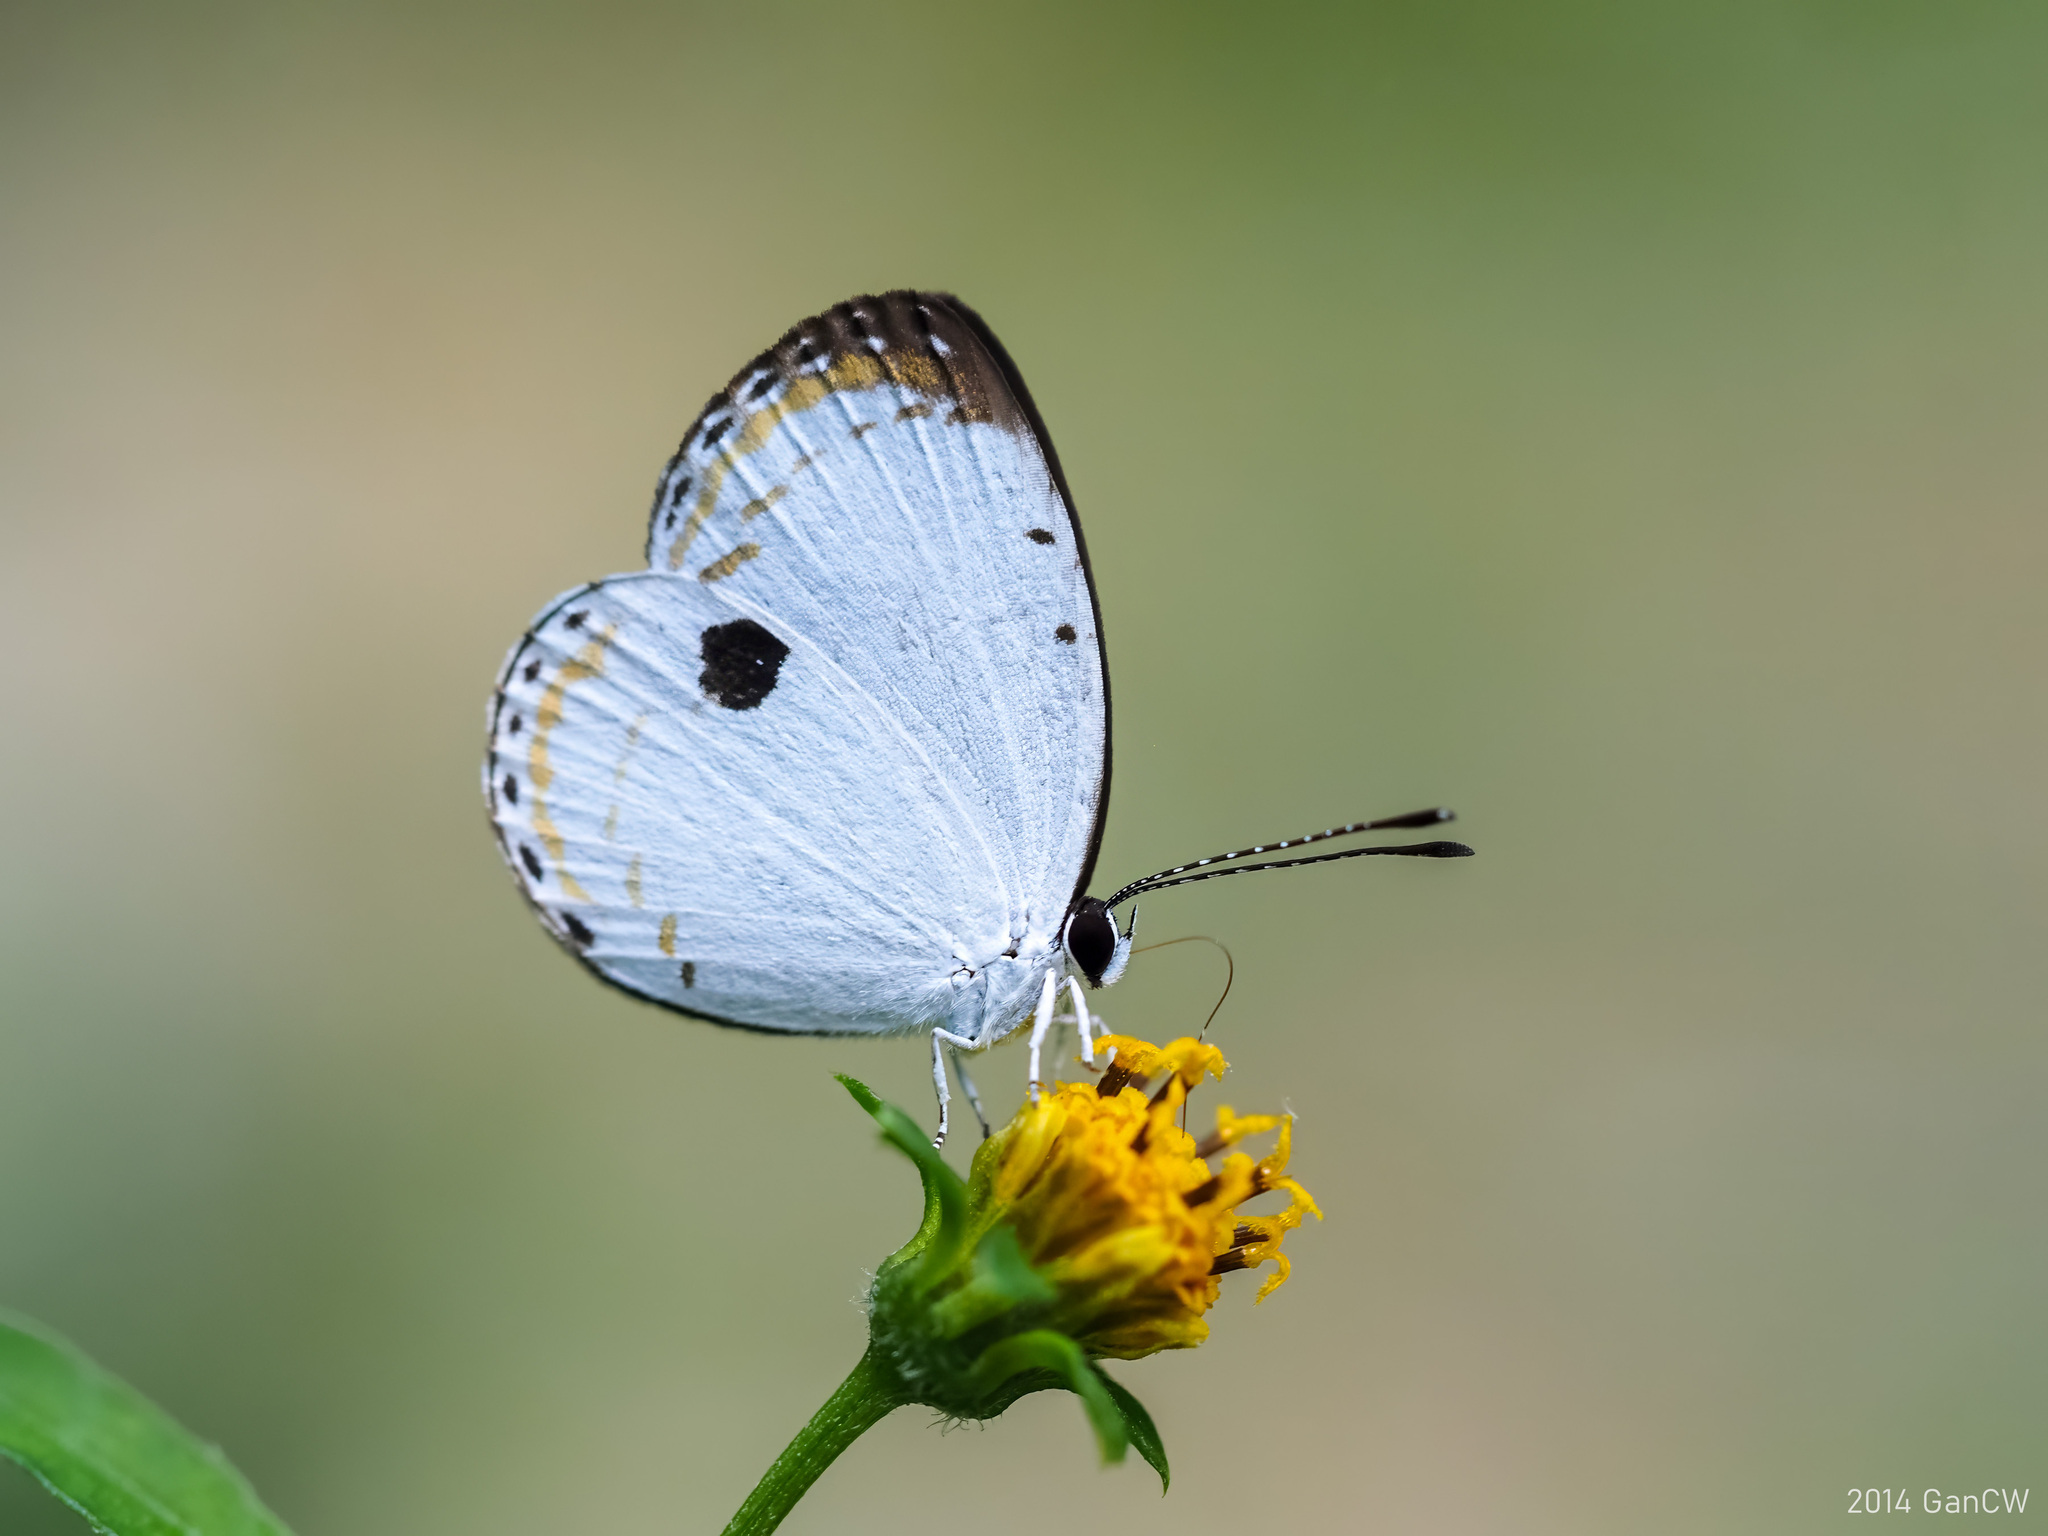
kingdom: Animalia
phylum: Arthropoda
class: Insecta
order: Lepidoptera
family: Lycaenidae
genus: Pithecops
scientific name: Pithecops corvus
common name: Forest quaker
